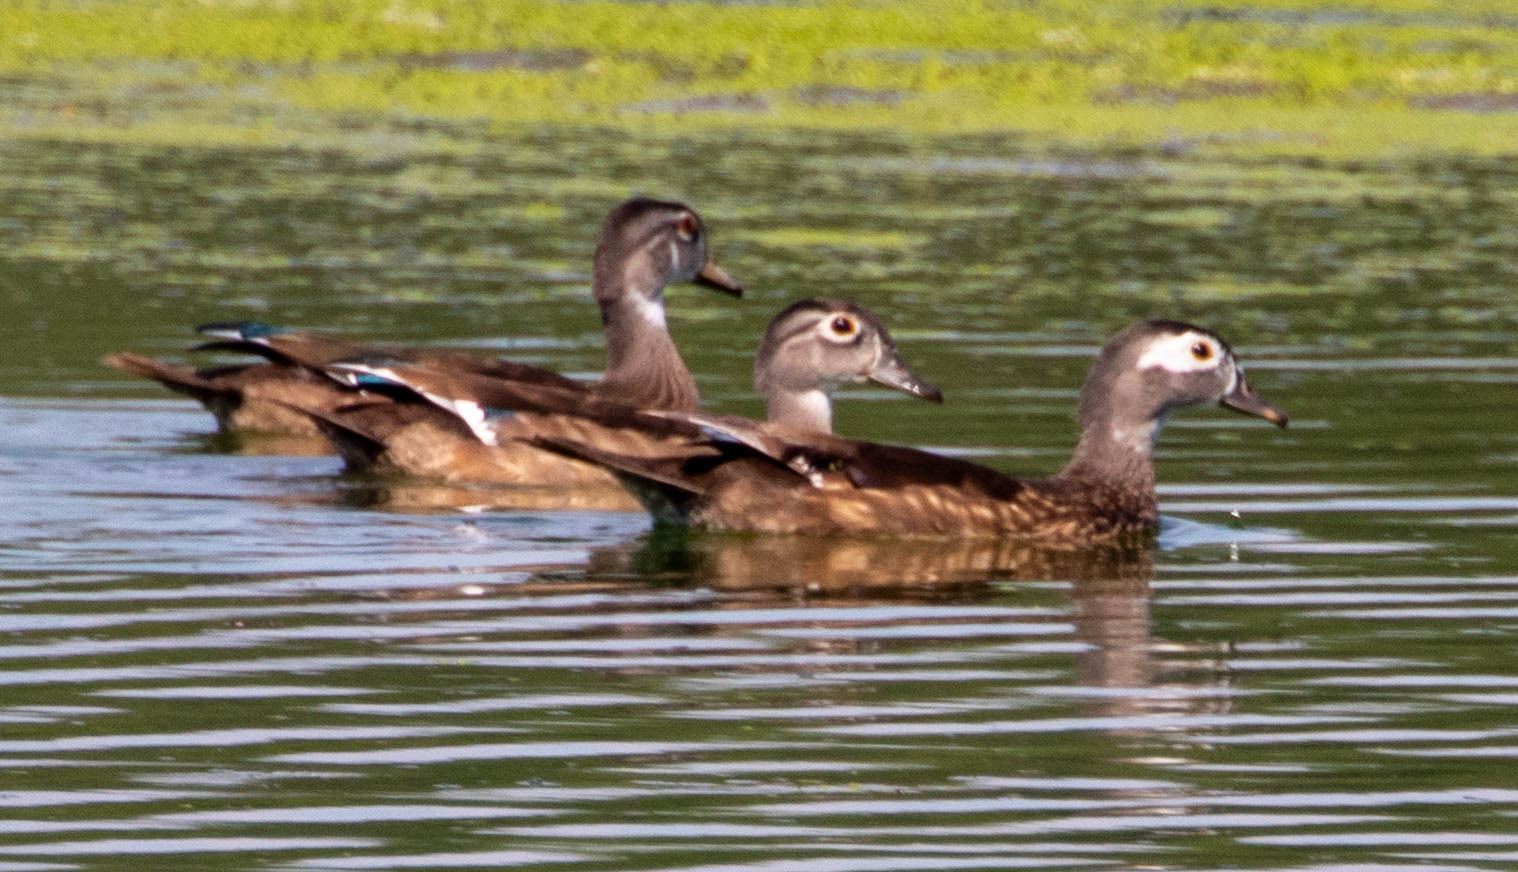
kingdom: Animalia
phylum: Chordata
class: Aves
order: Anseriformes
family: Anatidae
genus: Aix
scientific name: Aix sponsa
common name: Wood duck
